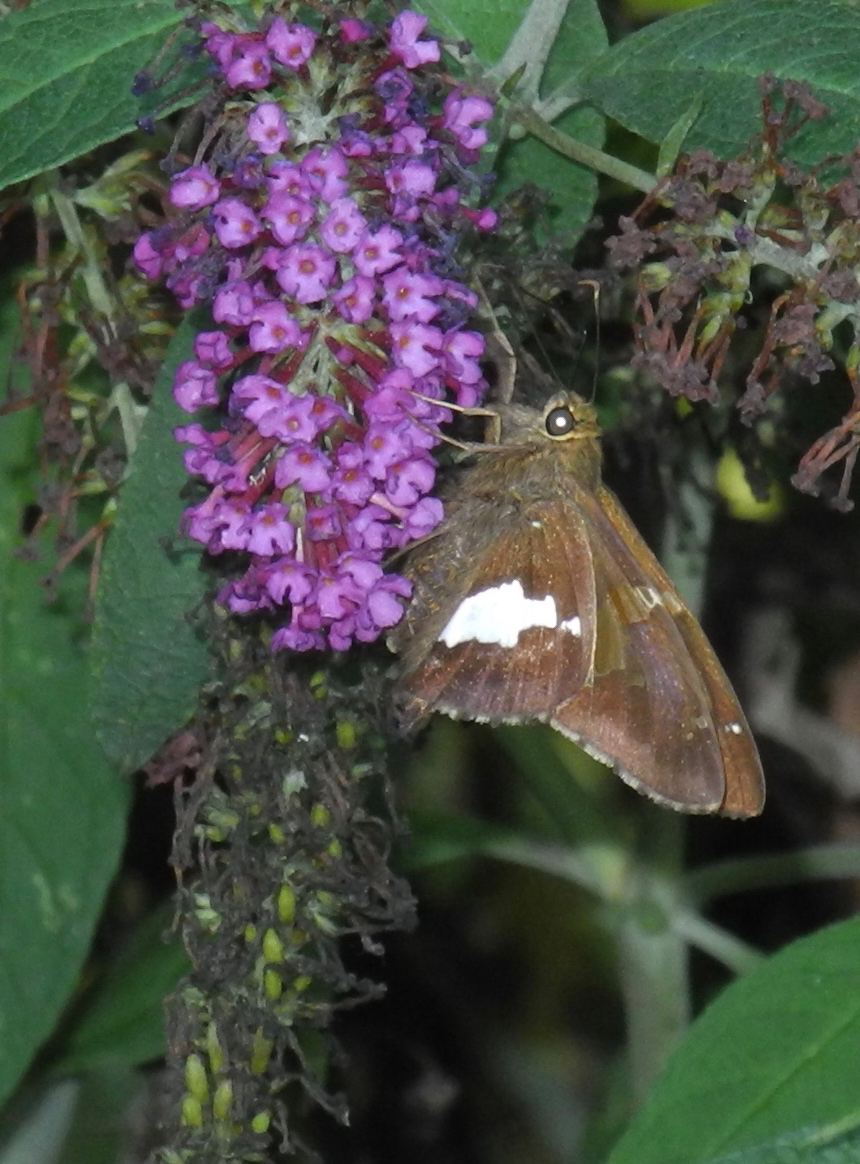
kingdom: Animalia
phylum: Arthropoda
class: Insecta
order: Lepidoptera
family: Hesperiidae
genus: Epargyreus
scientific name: Epargyreus clarus
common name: Silver-spotted skipper
